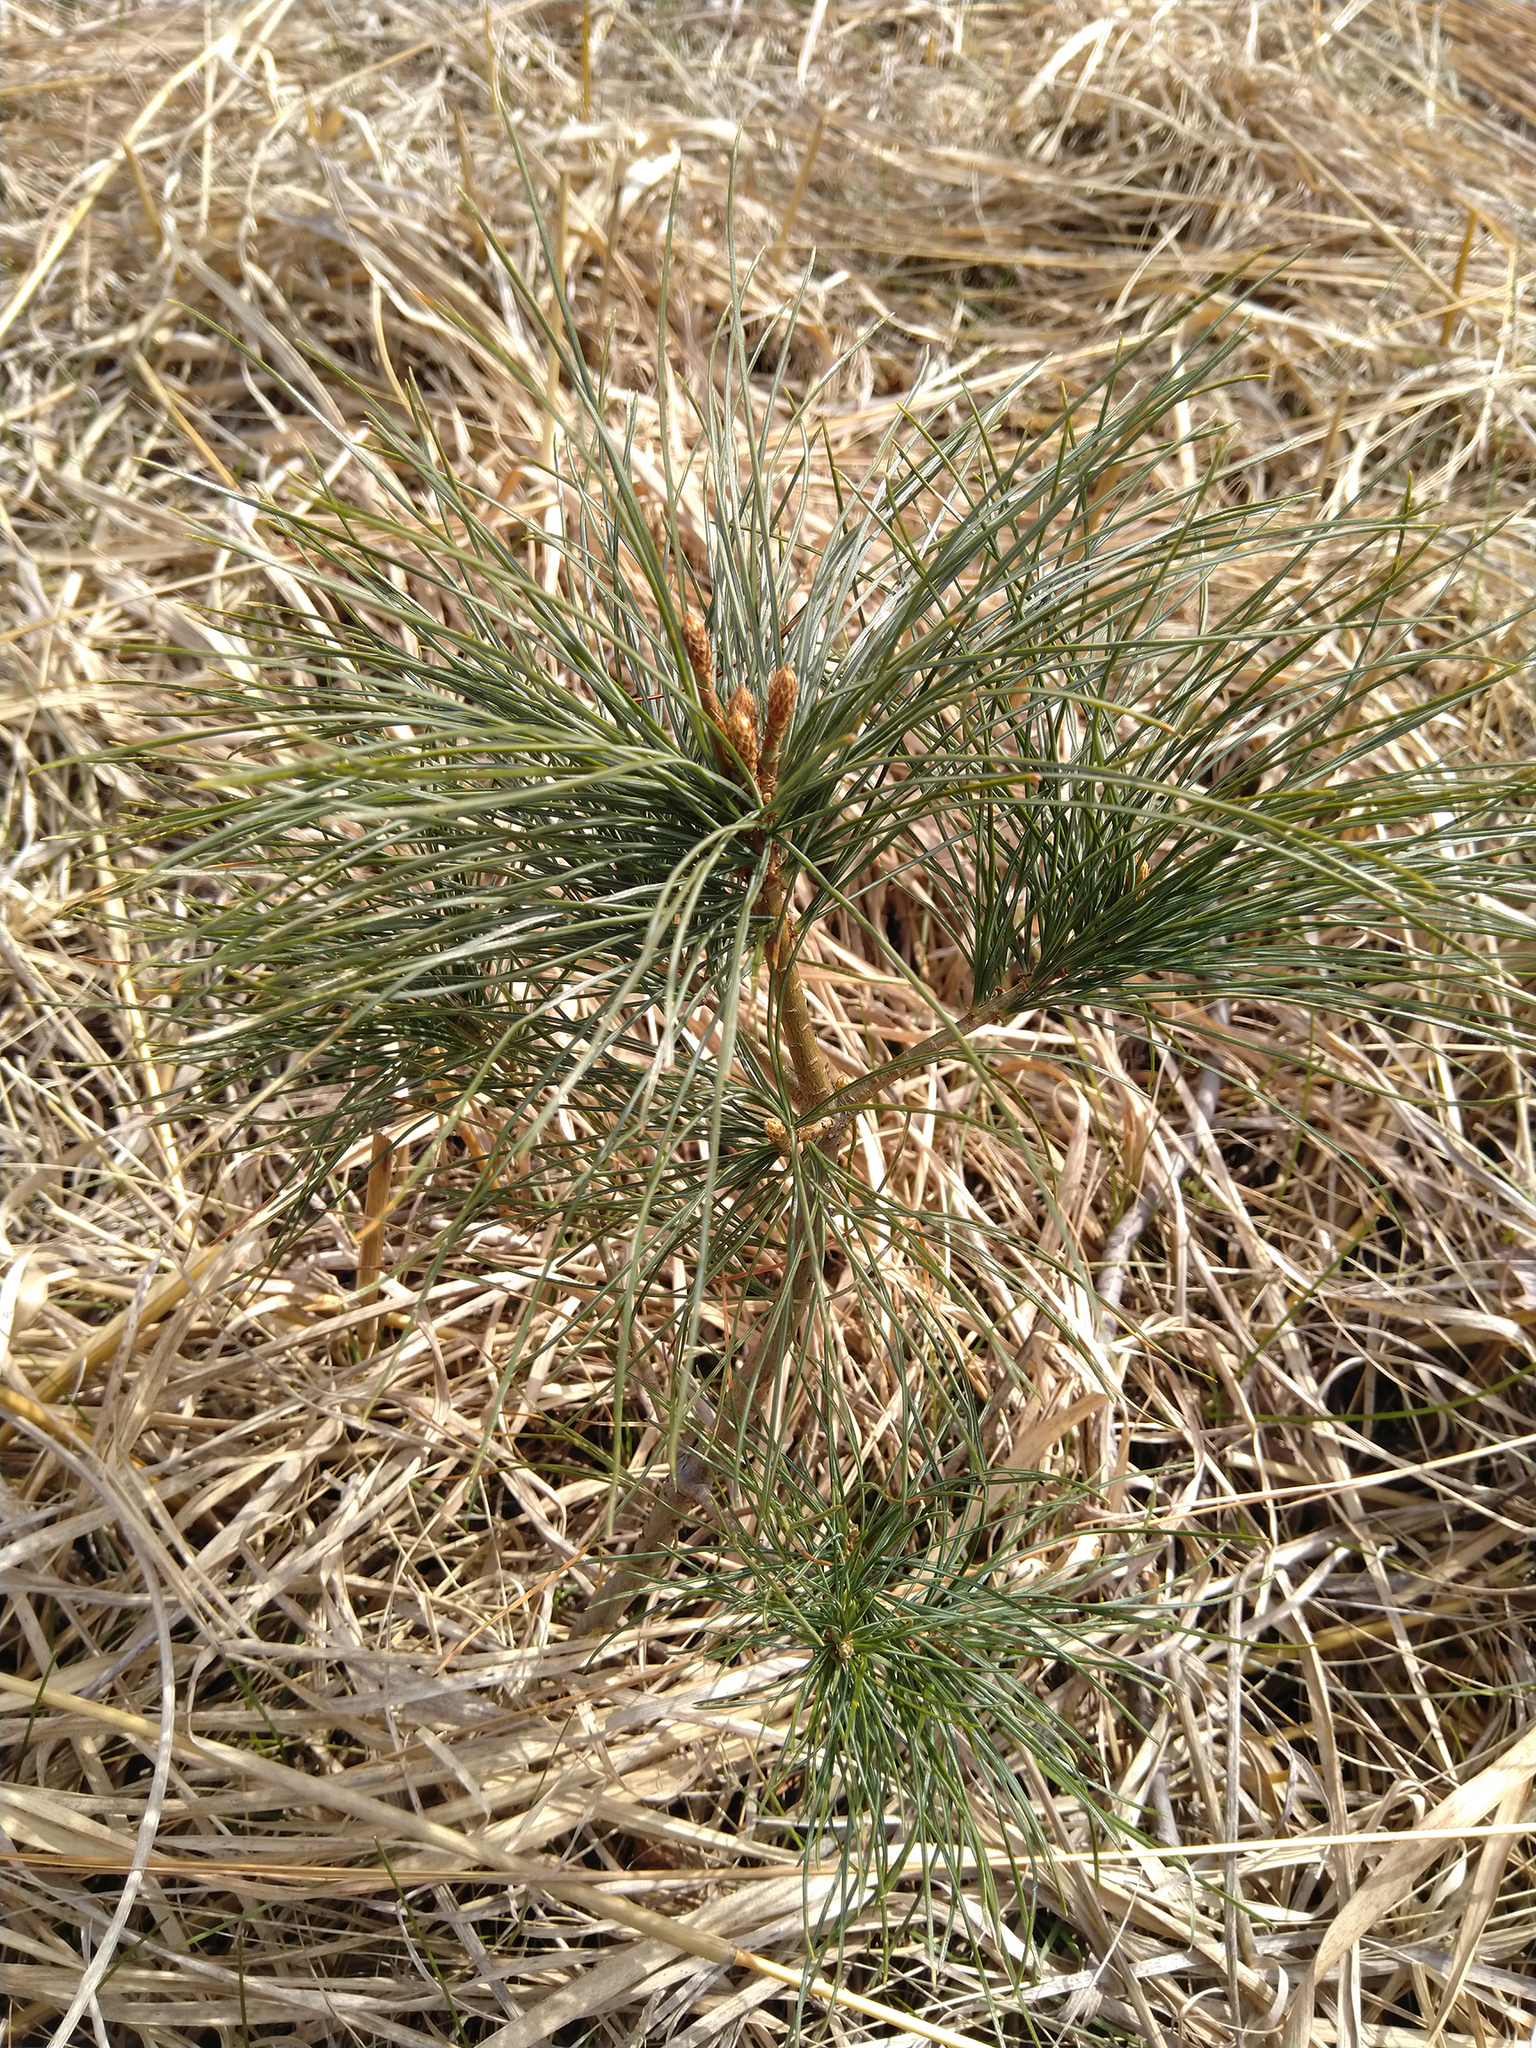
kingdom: Plantae
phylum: Tracheophyta
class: Pinopsida
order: Pinales
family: Pinaceae
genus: Pinus
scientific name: Pinus strobus
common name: Weymouth pine
